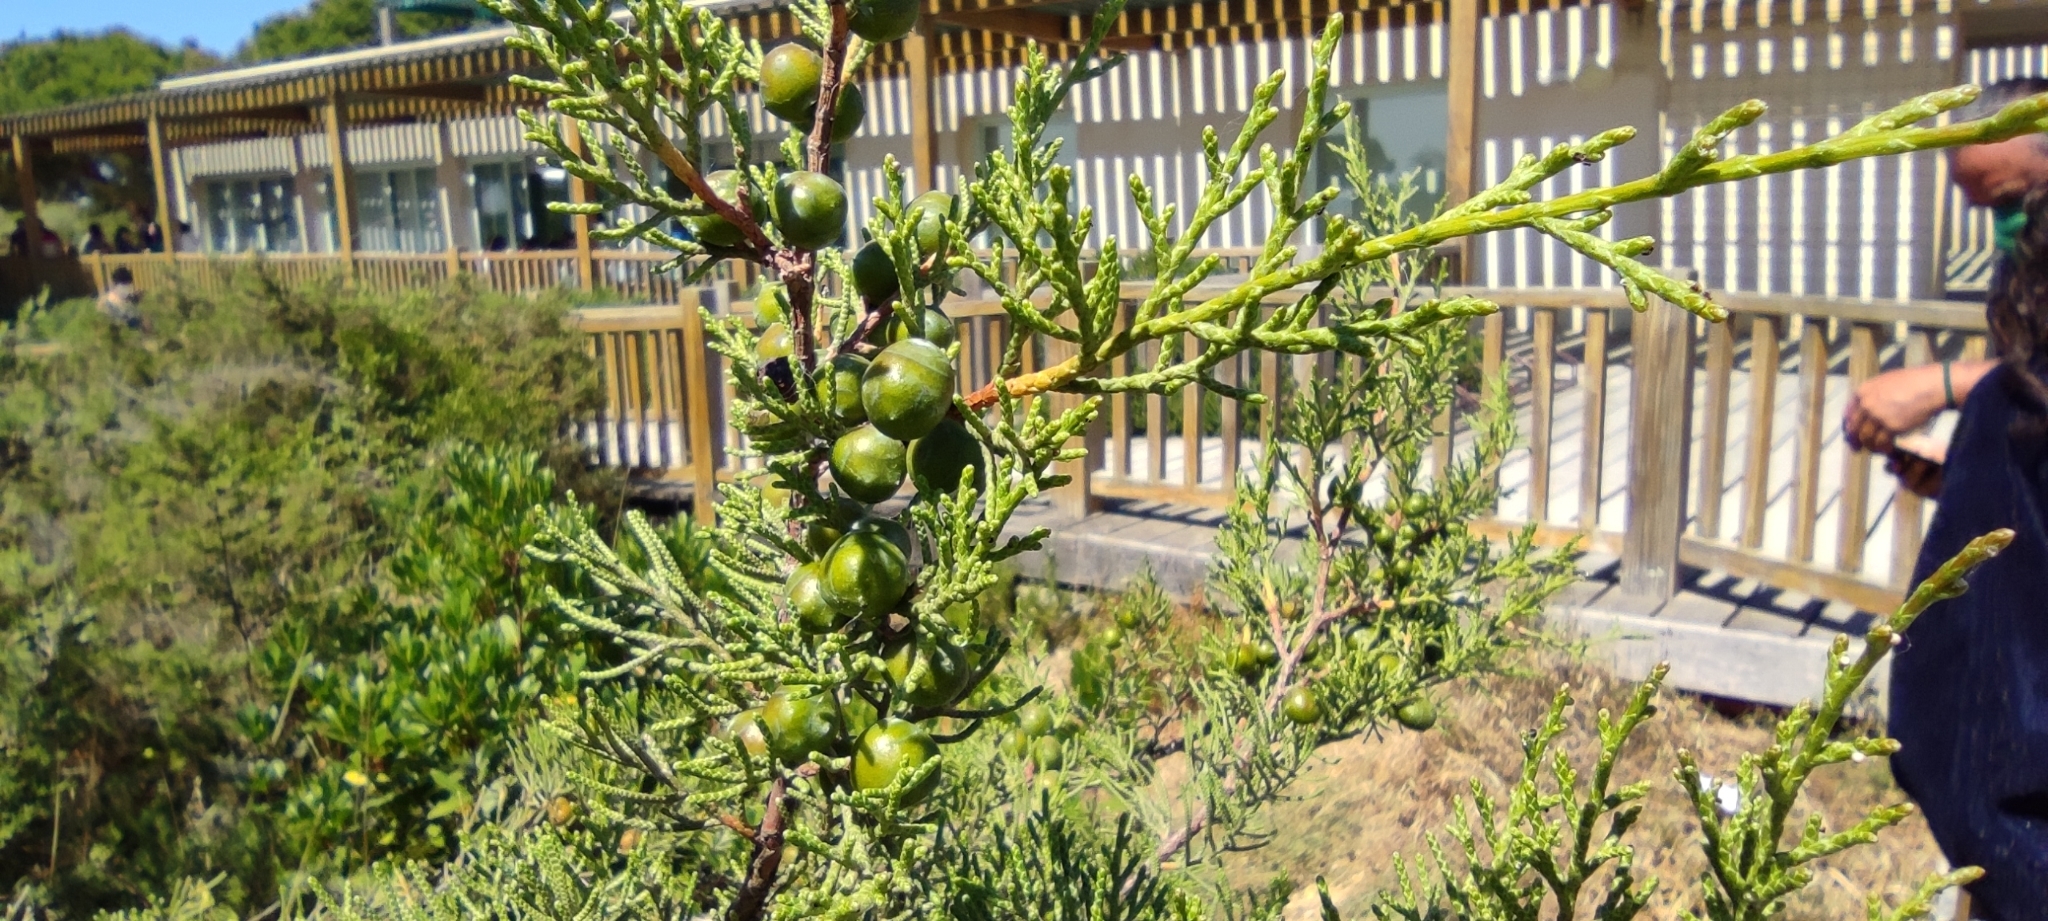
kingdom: Plantae
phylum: Tracheophyta
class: Pinopsida
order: Pinales
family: Cupressaceae
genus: Juniperus
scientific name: Juniperus phoenicea
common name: Phoenician juniper
